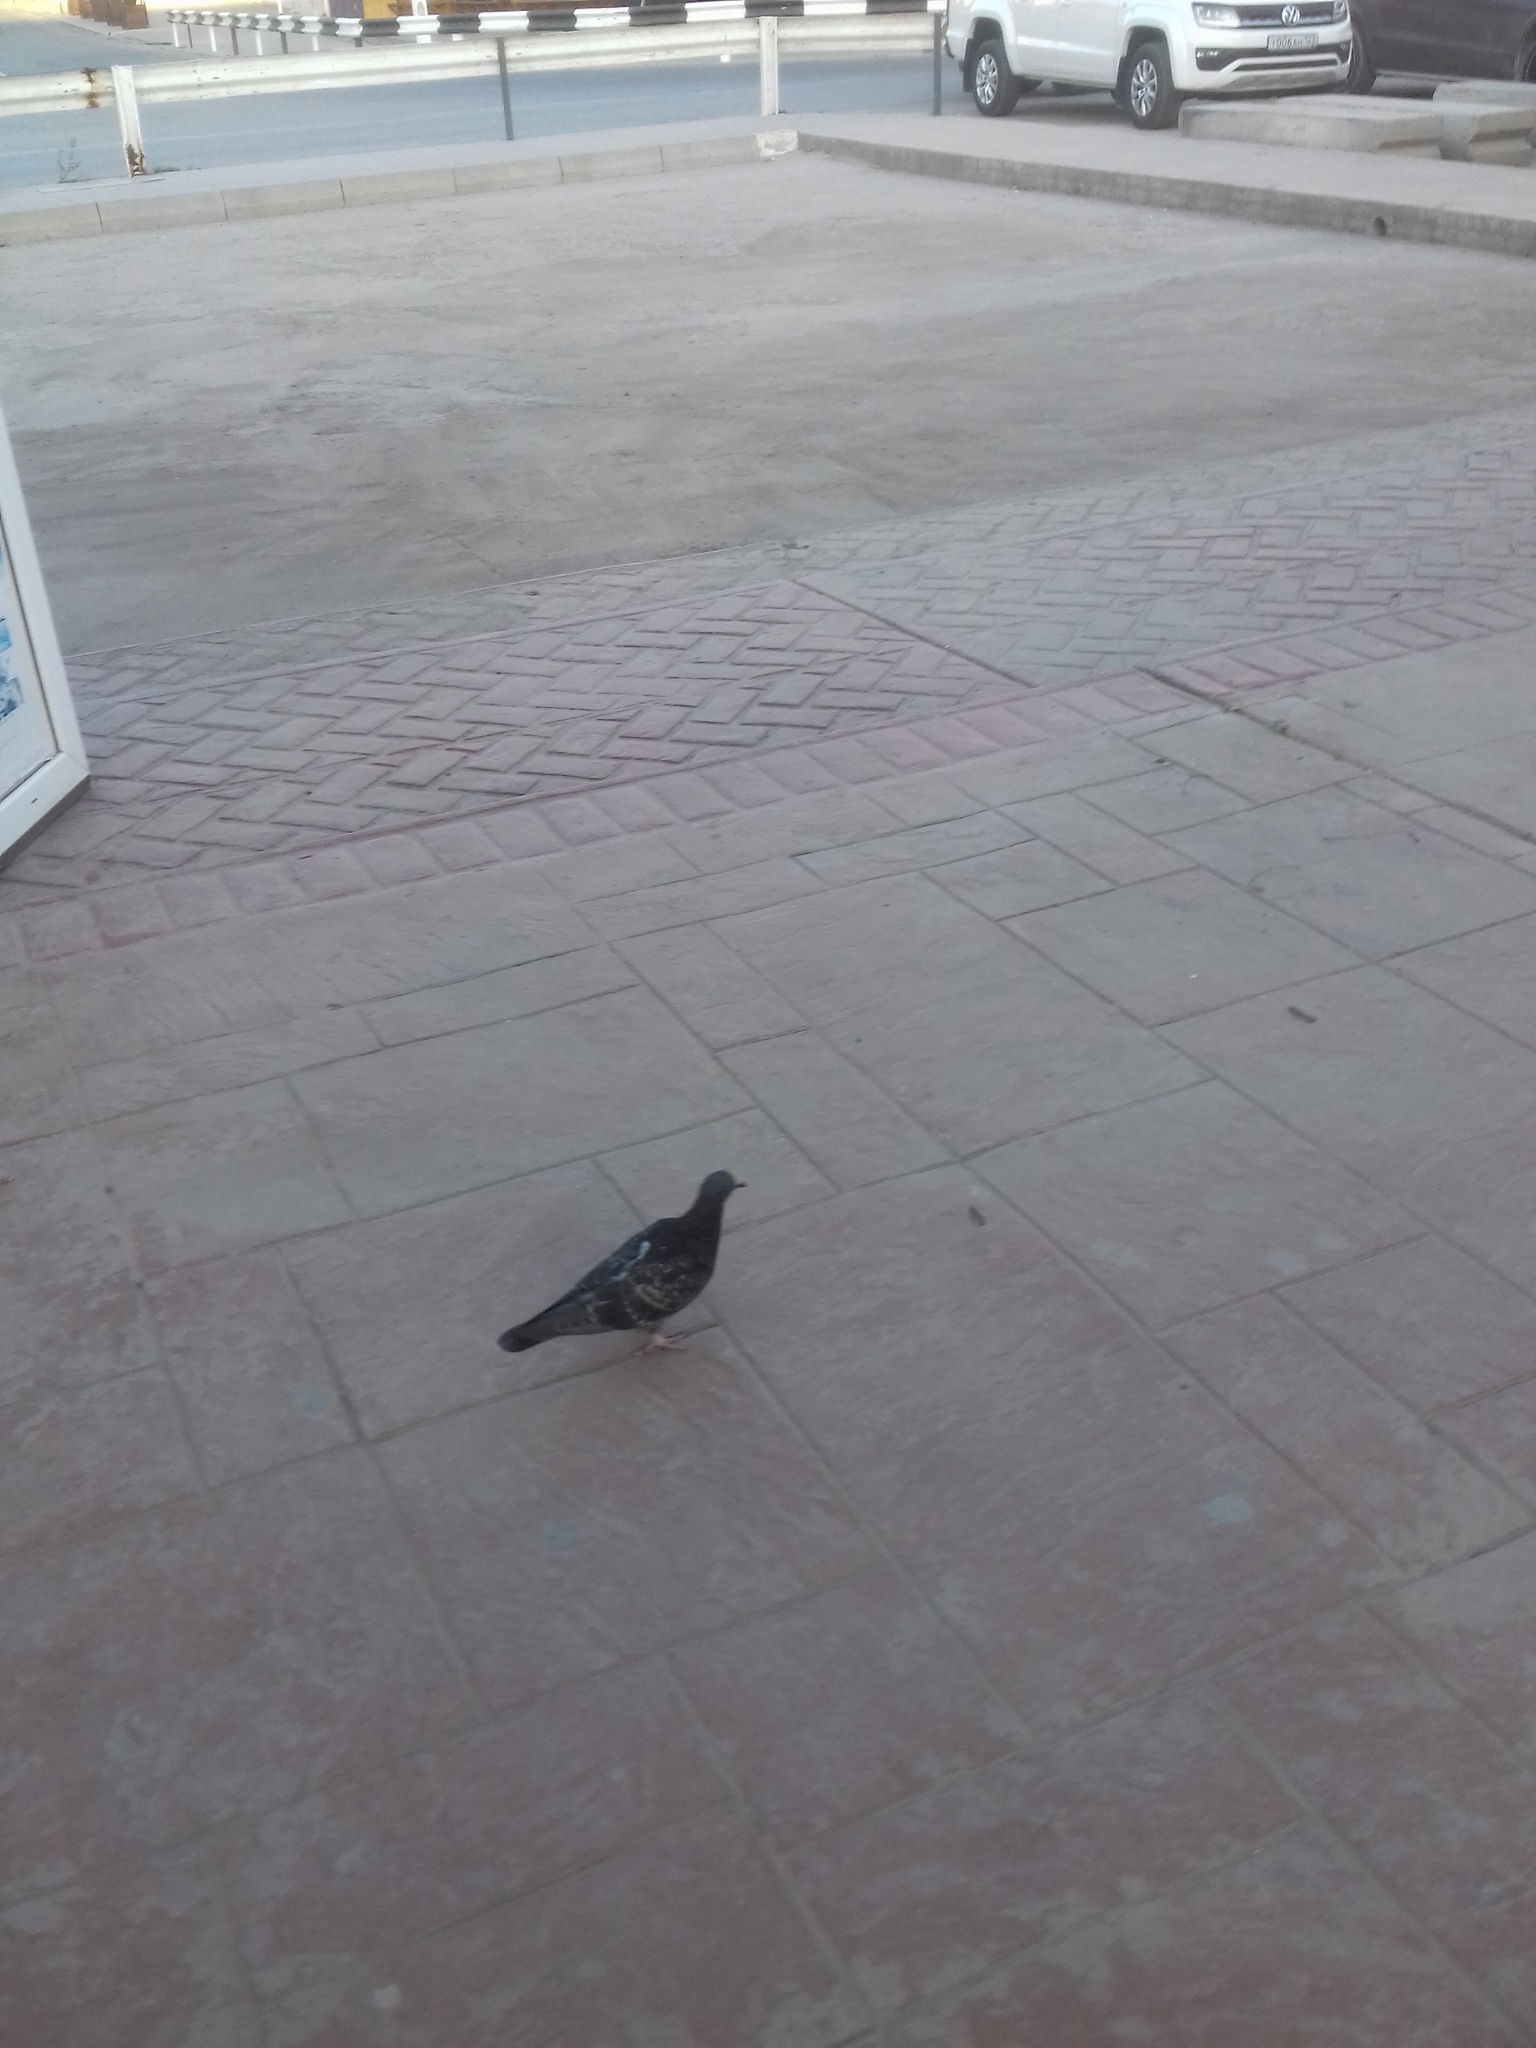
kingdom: Animalia
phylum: Chordata
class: Aves
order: Columbiformes
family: Columbidae
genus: Columba
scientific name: Columba livia
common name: Rock pigeon
